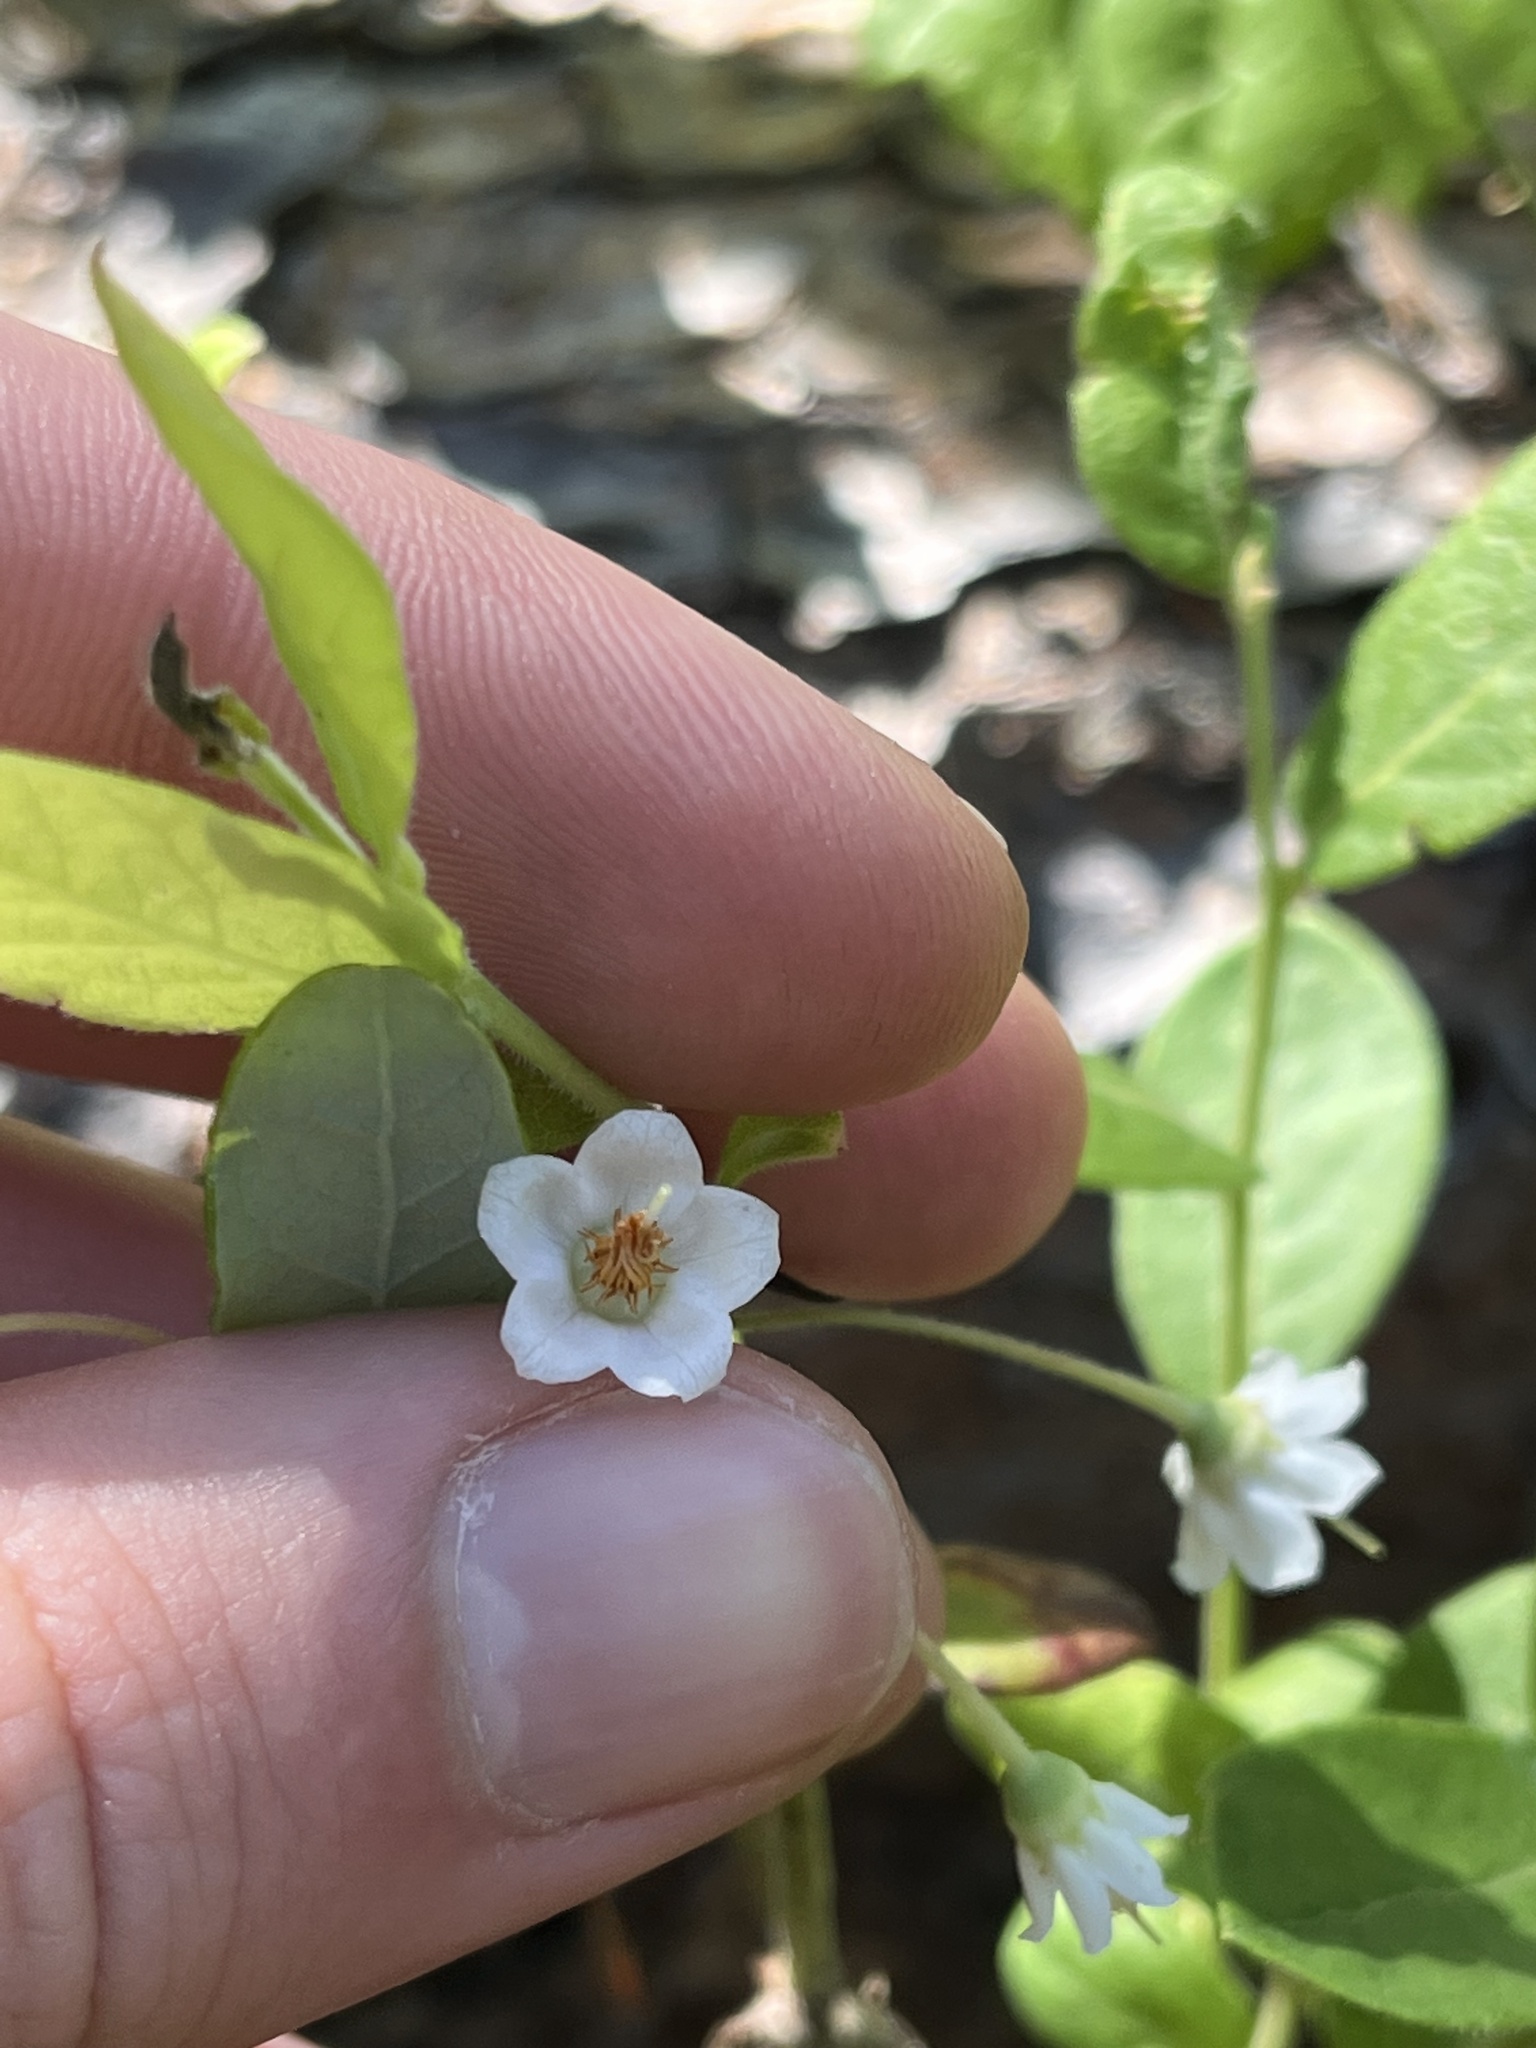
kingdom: Plantae
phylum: Tracheophyta
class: Magnoliopsida
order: Ericales
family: Ericaceae
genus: Vaccinium
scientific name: Vaccinium stamineum
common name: Deerberry
